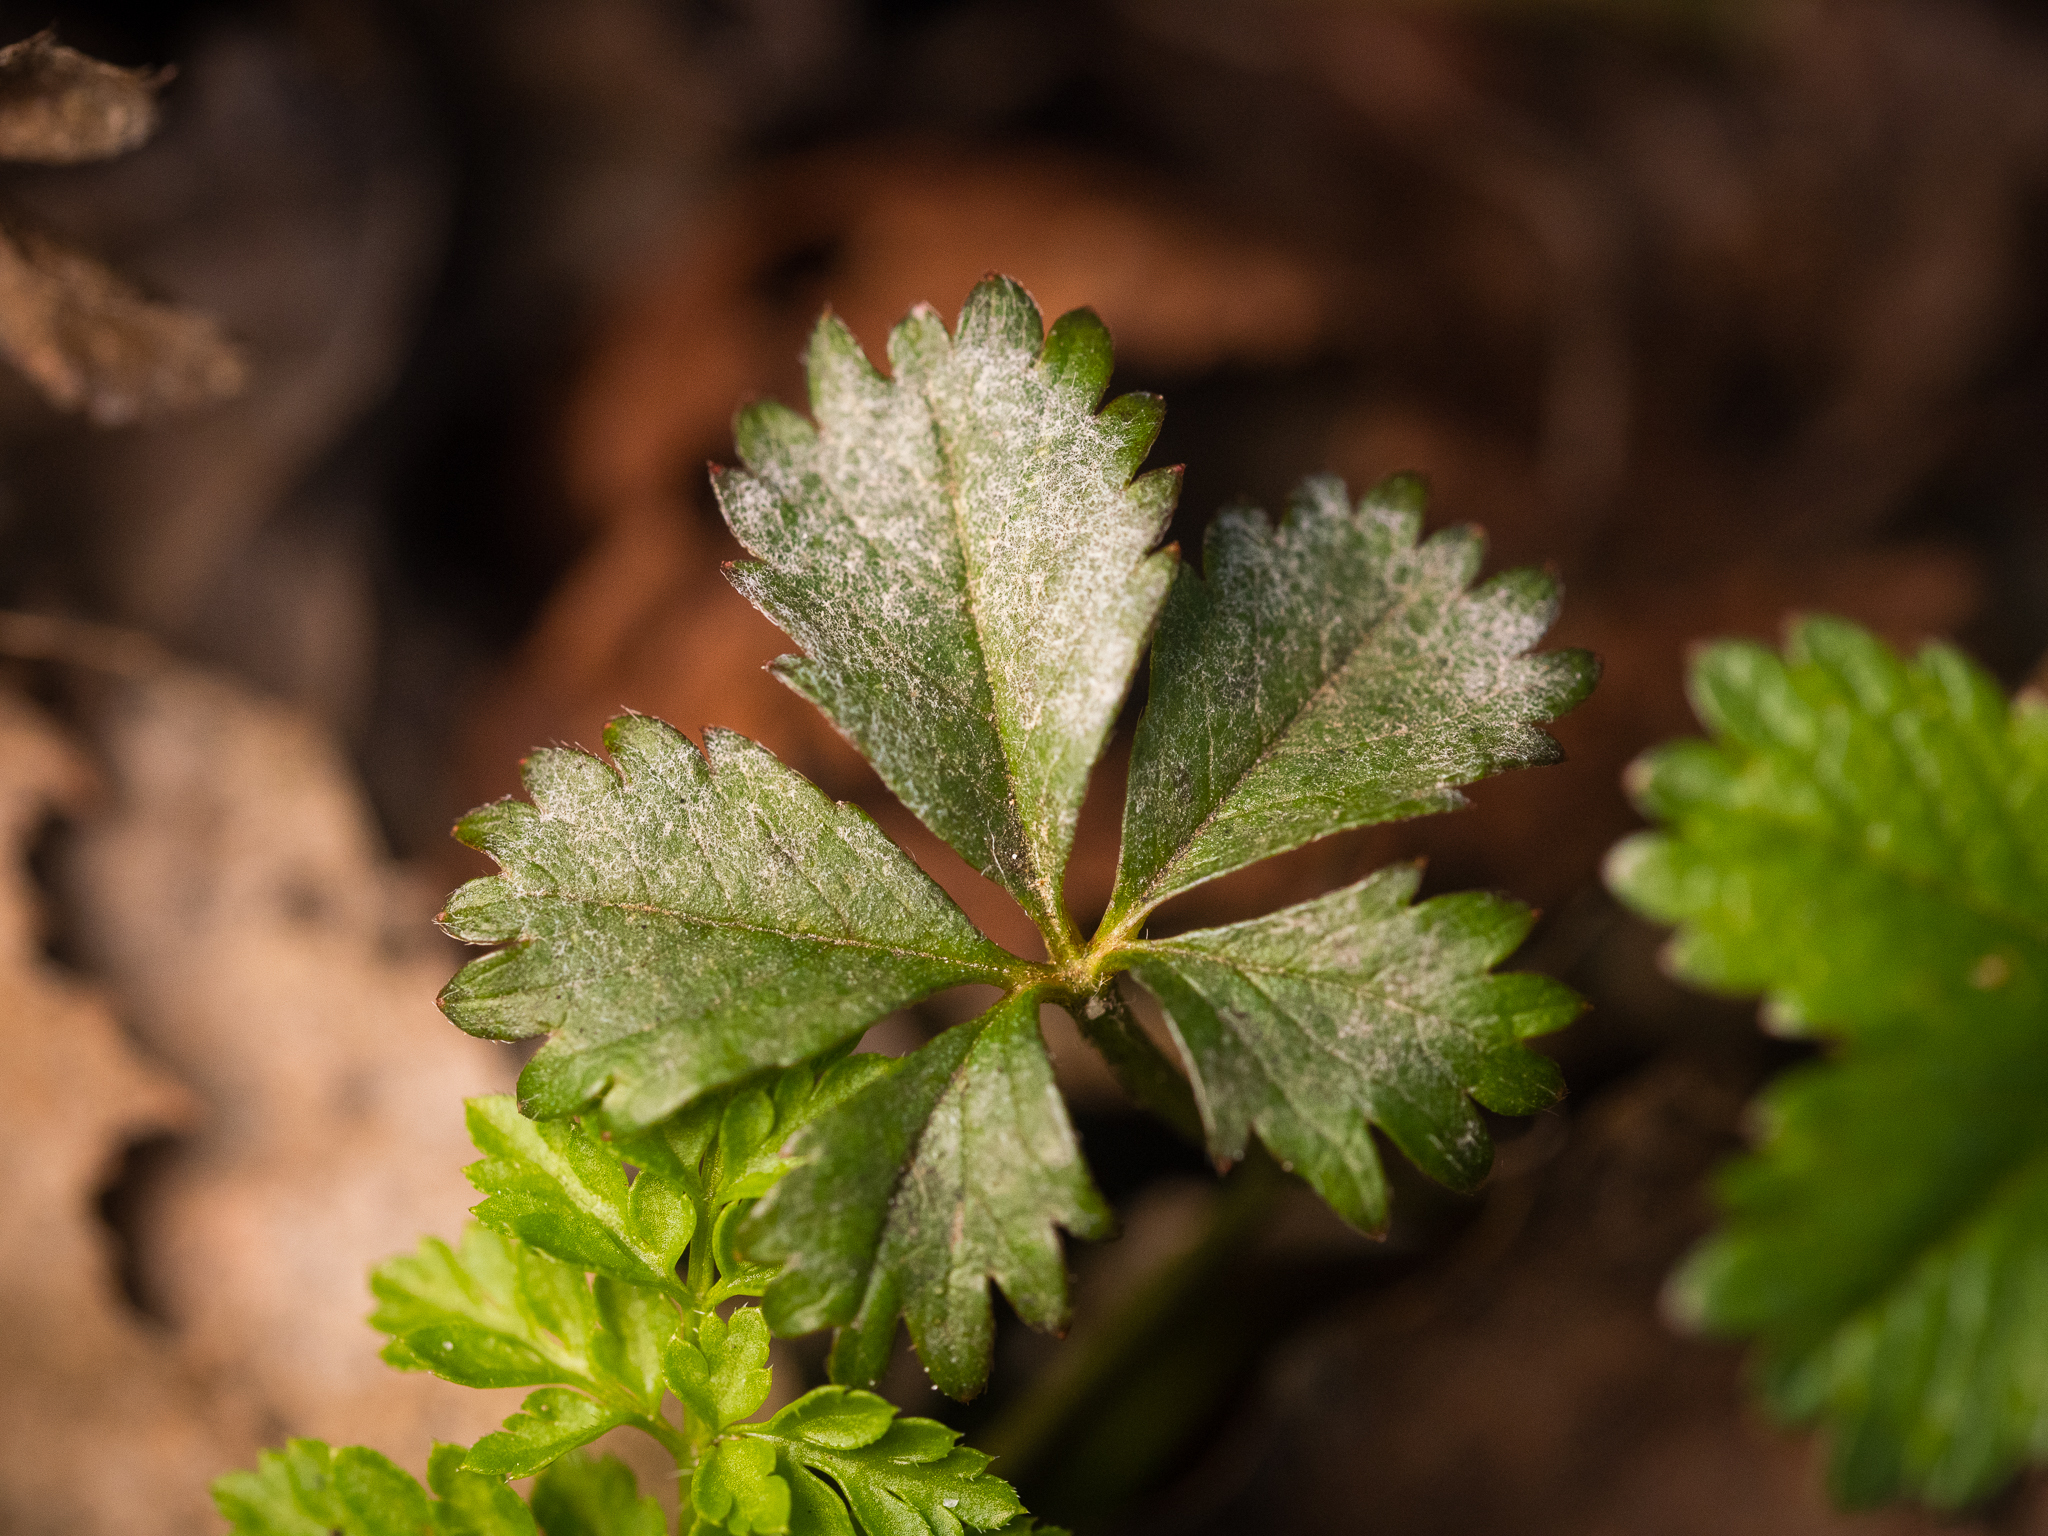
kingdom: Plantae
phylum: Tracheophyta
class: Magnoliopsida
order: Rosales
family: Rosaceae
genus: Potentilla
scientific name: Potentilla reptans
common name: Creeping cinquefoil
